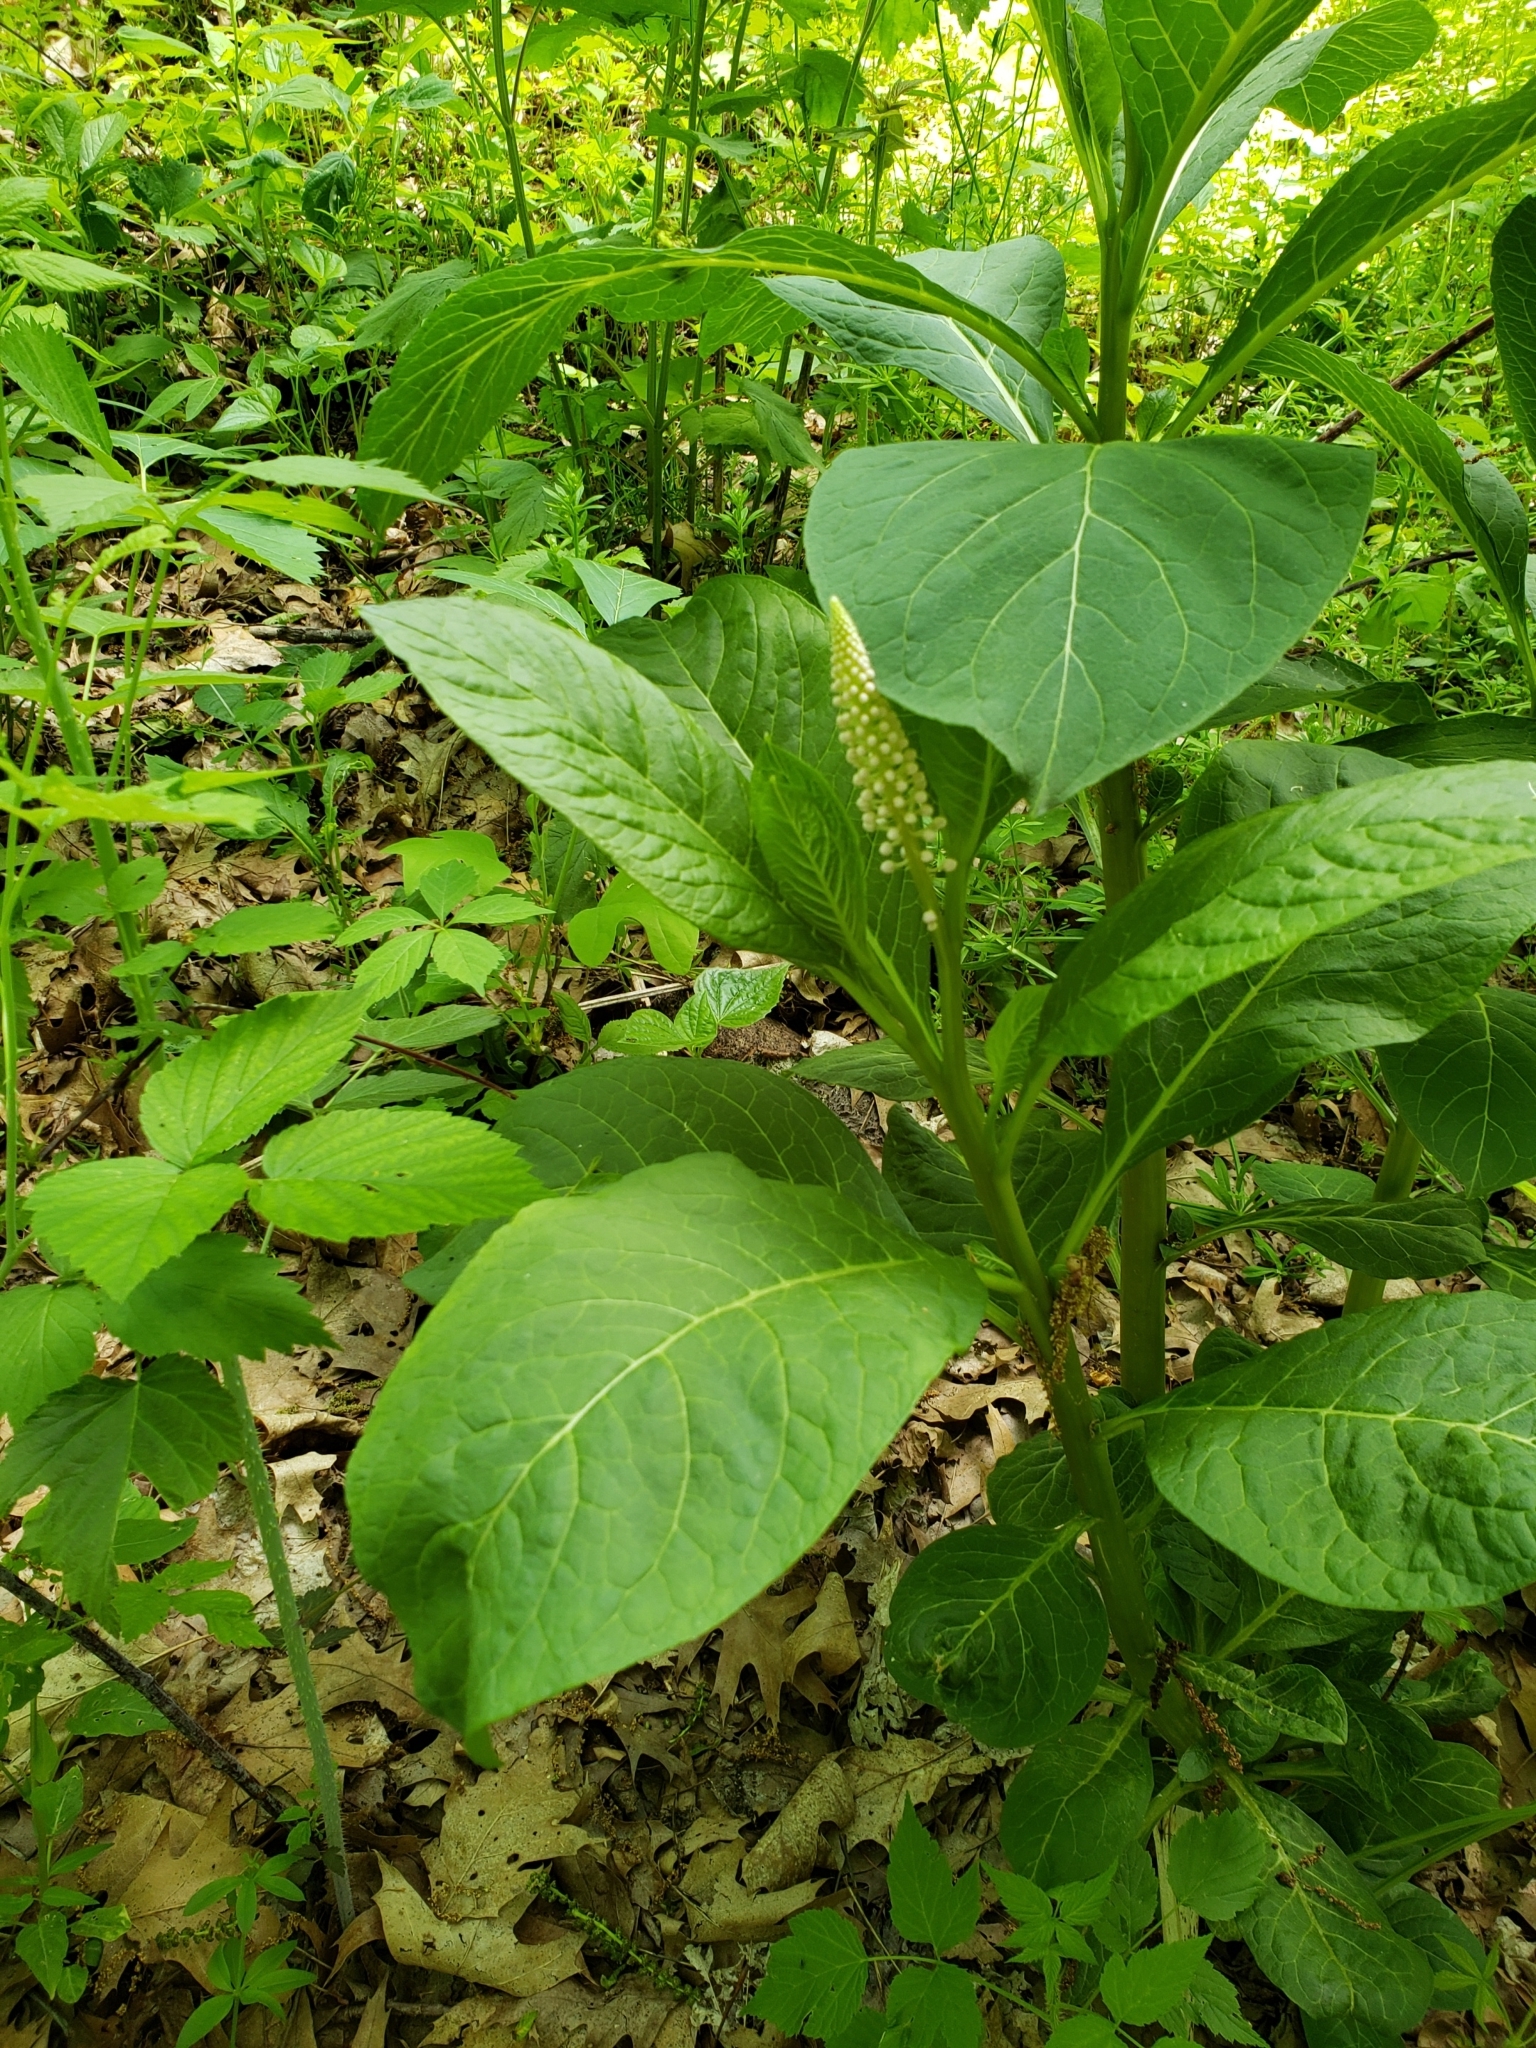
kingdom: Plantae
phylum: Tracheophyta
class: Magnoliopsida
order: Caryophyllales
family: Phytolaccaceae
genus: Phytolacca
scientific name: Phytolacca acinosa
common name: Indian pokeweed
